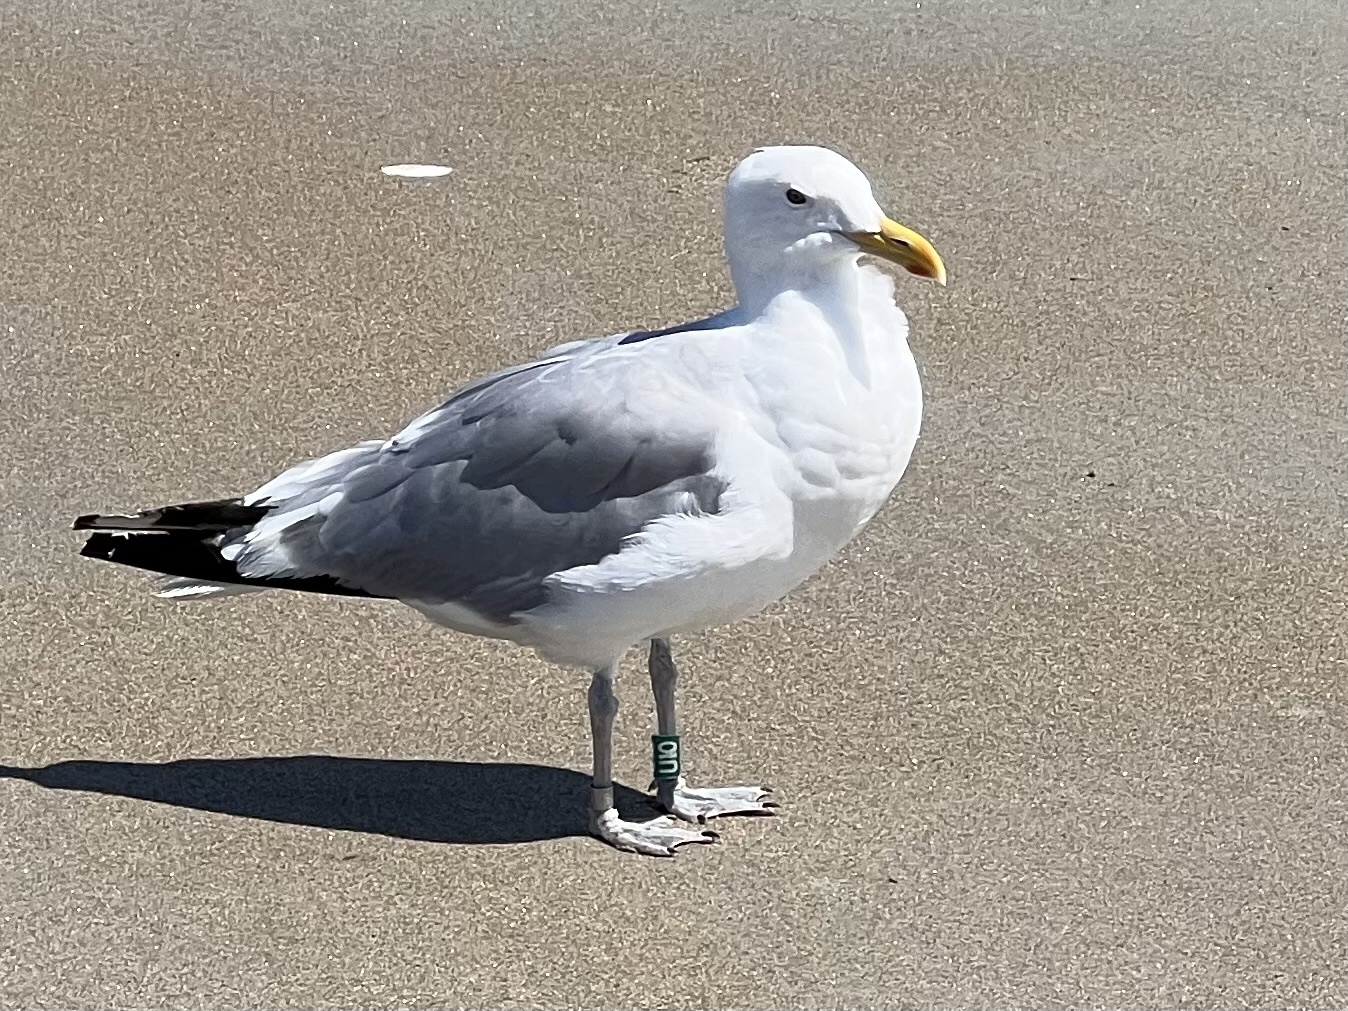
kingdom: Animalia
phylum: Chordata
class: Aves
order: Charadriiformes
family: Laridae
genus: Larus
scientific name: Larus argentatus
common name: Herring gull
